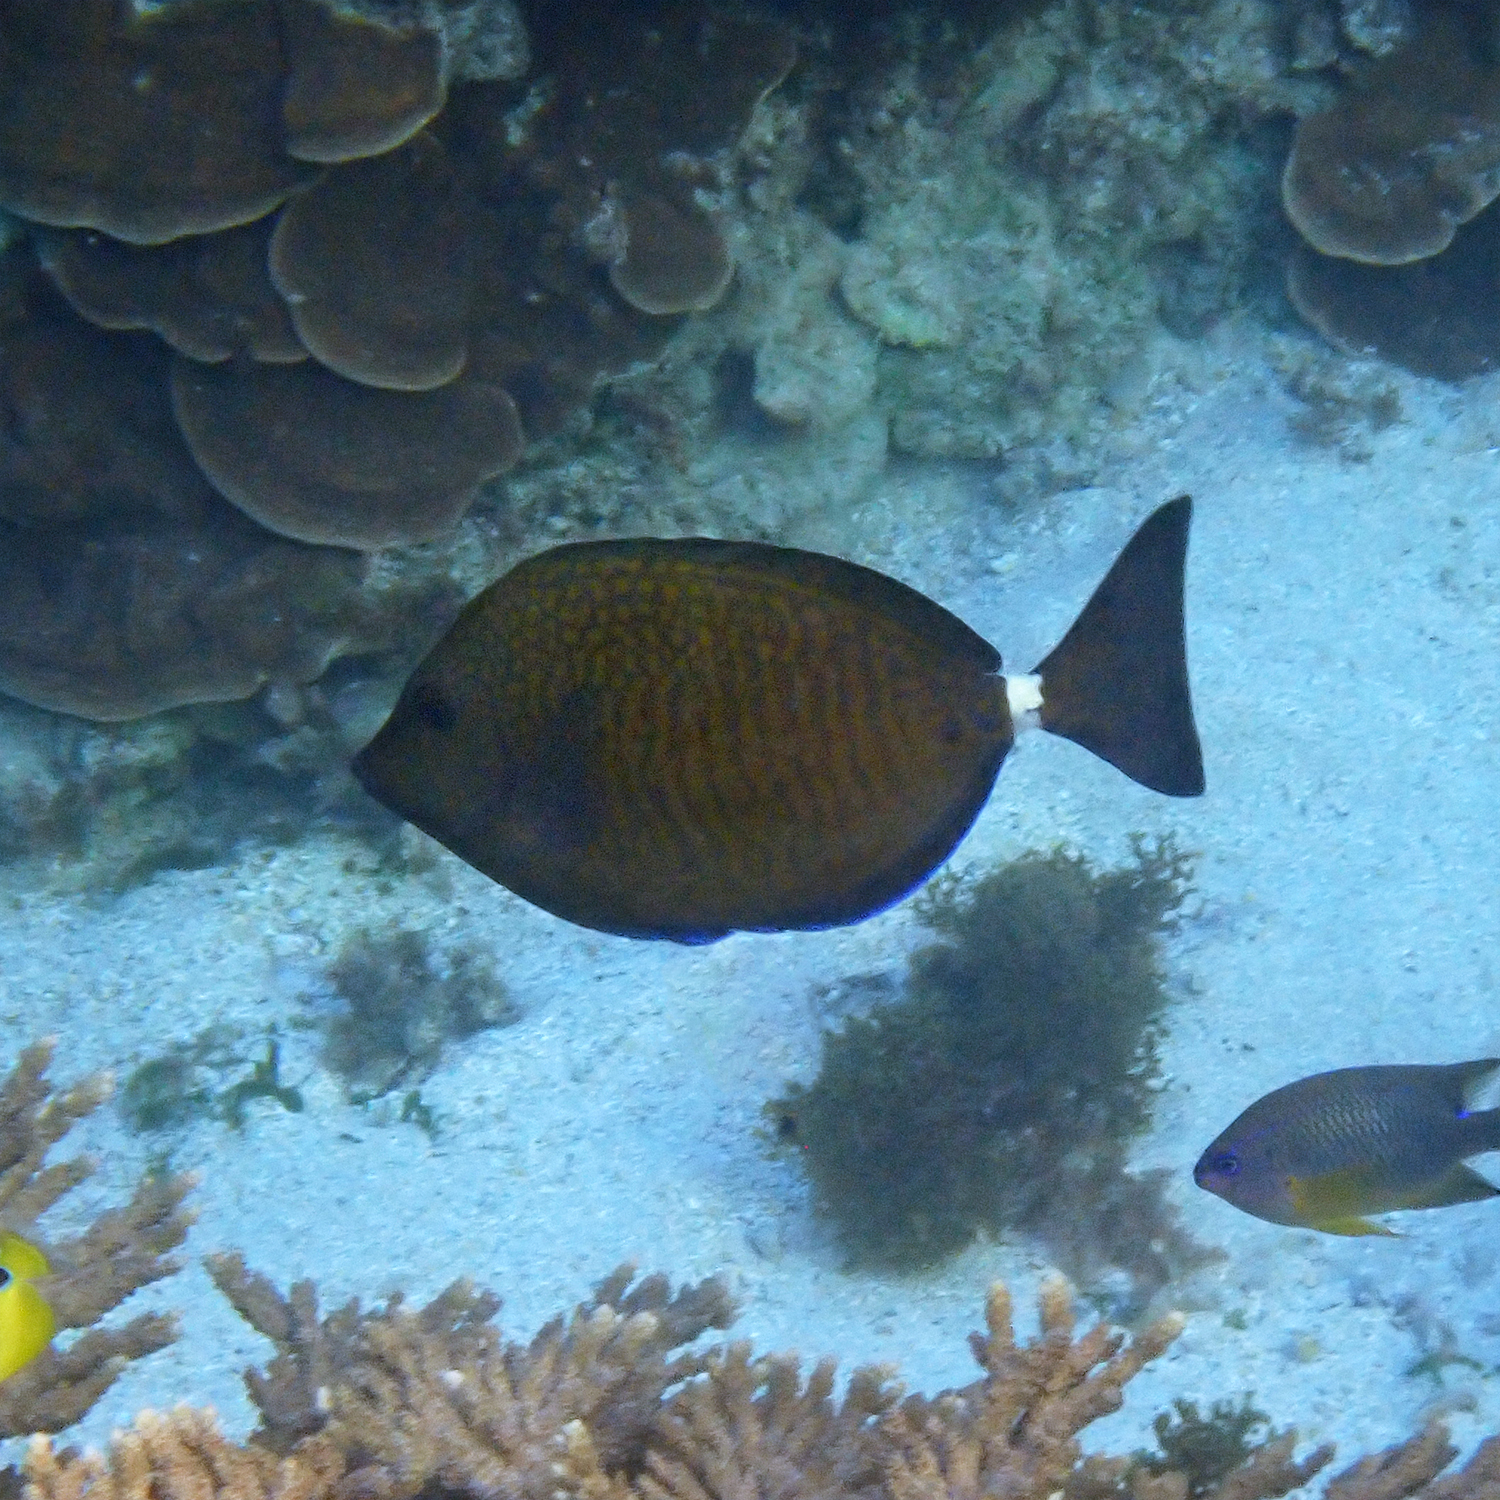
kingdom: Animalia
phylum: Chordata
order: Perciformes
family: Acanthuridae
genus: Prionurus
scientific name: Prionurus maculatus
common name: Yellowspotted sawtail
